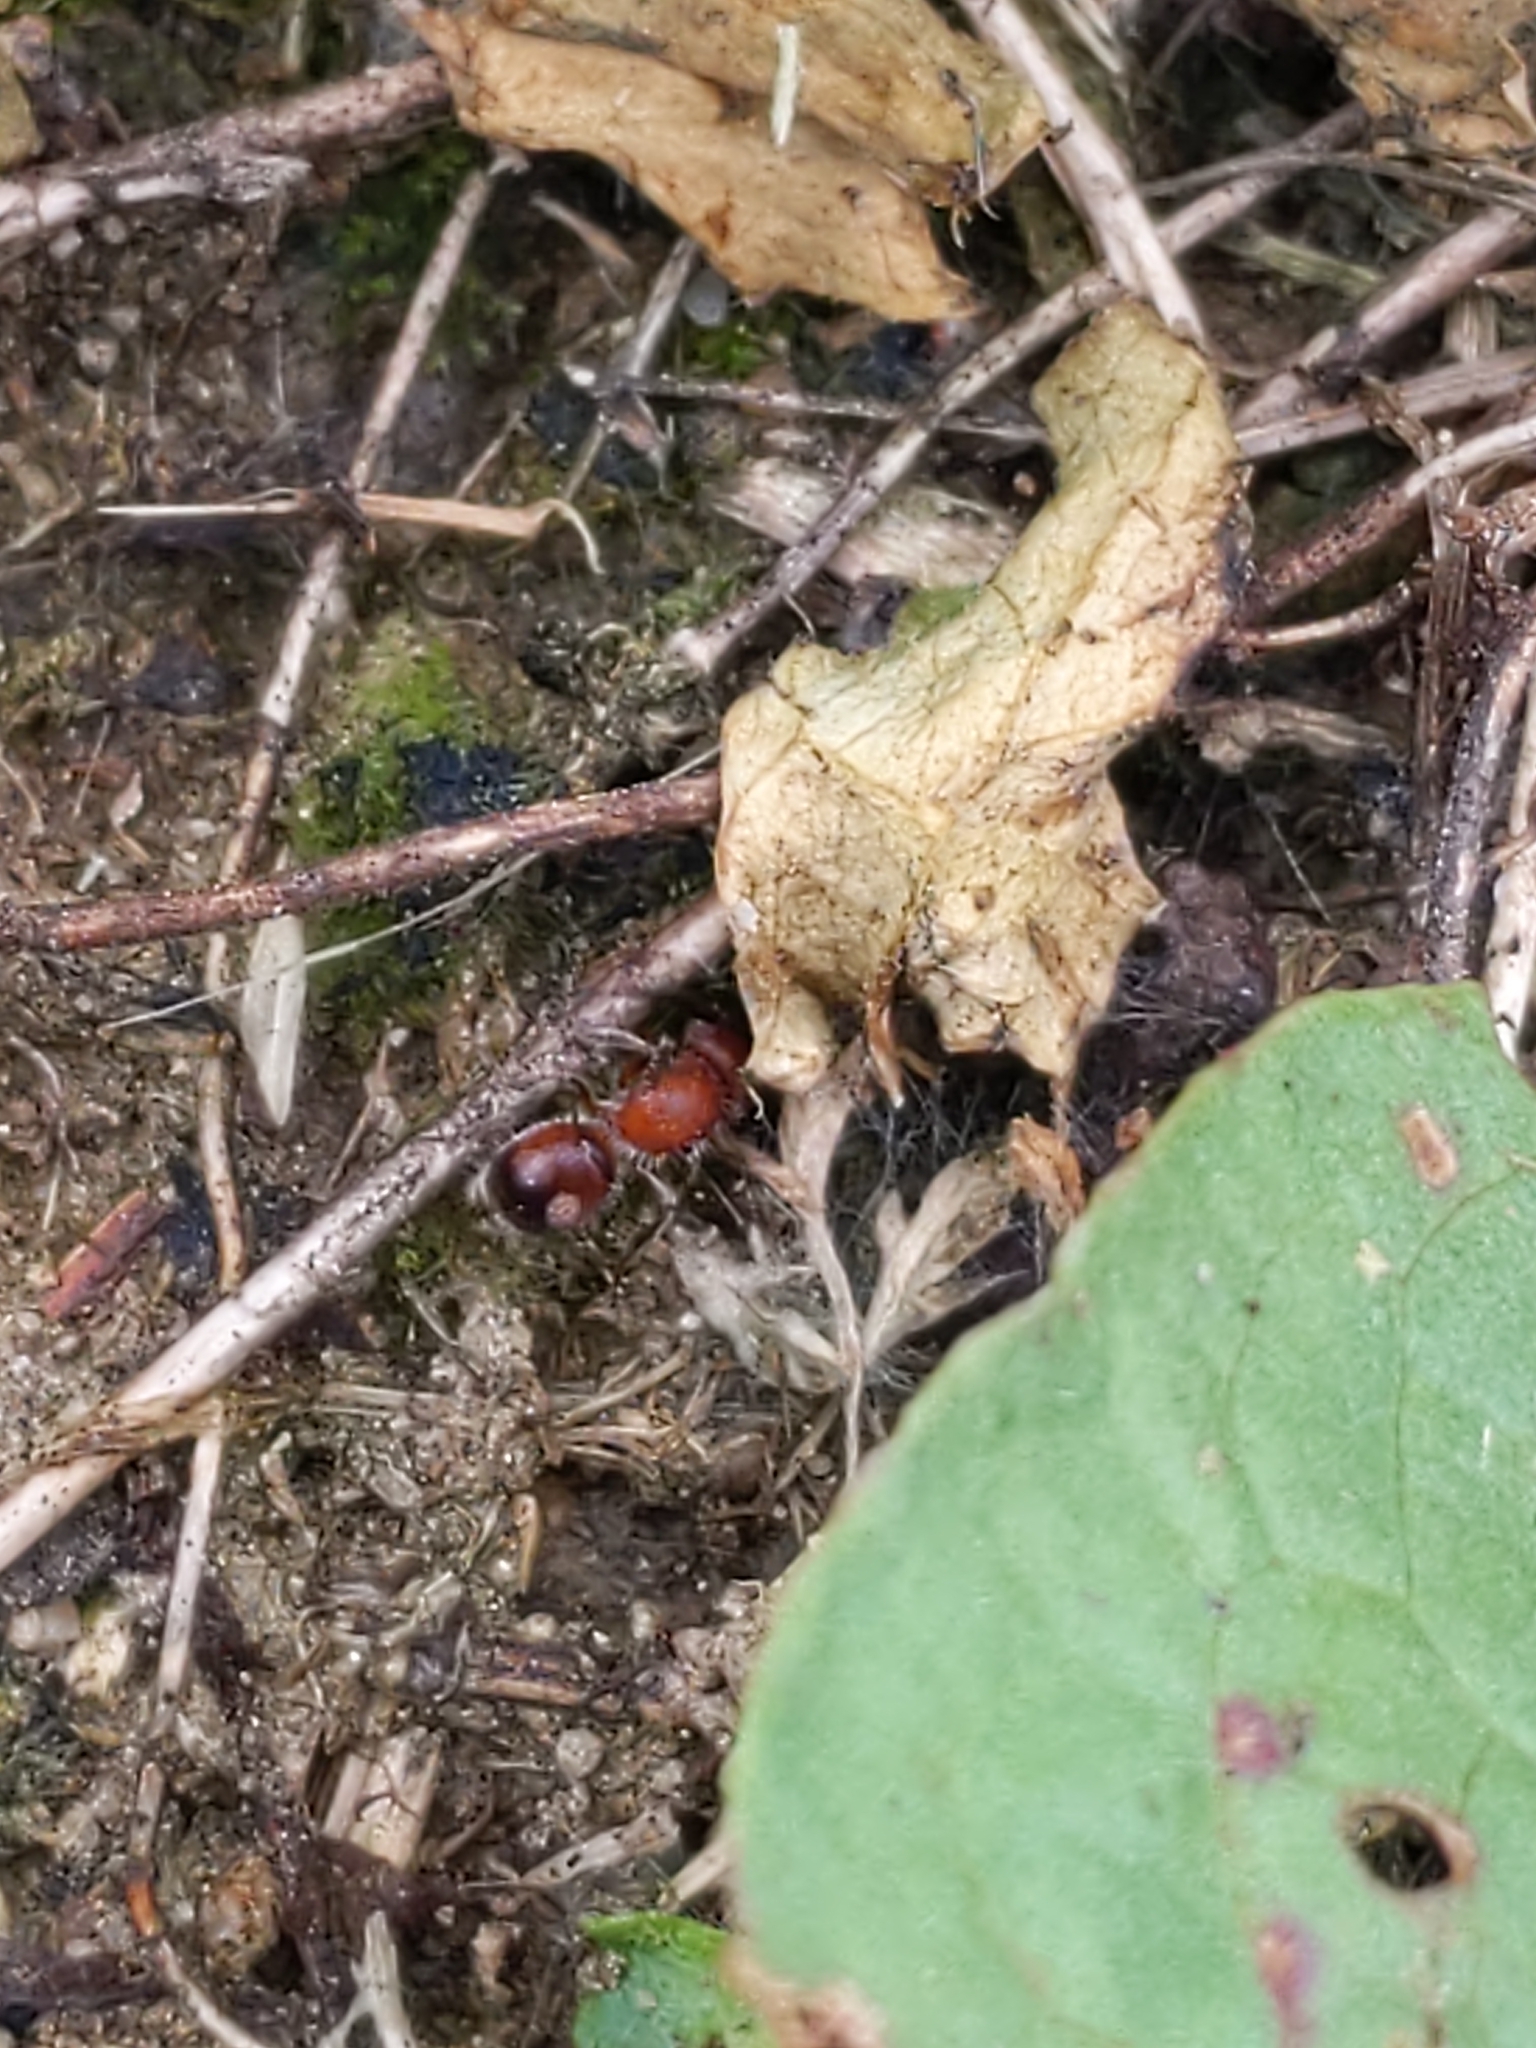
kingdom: Animalia
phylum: Arthropoda
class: Insecta
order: Hymenoptera
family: Mutillidae
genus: Pseudomethoca
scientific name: Pseudomethoca
